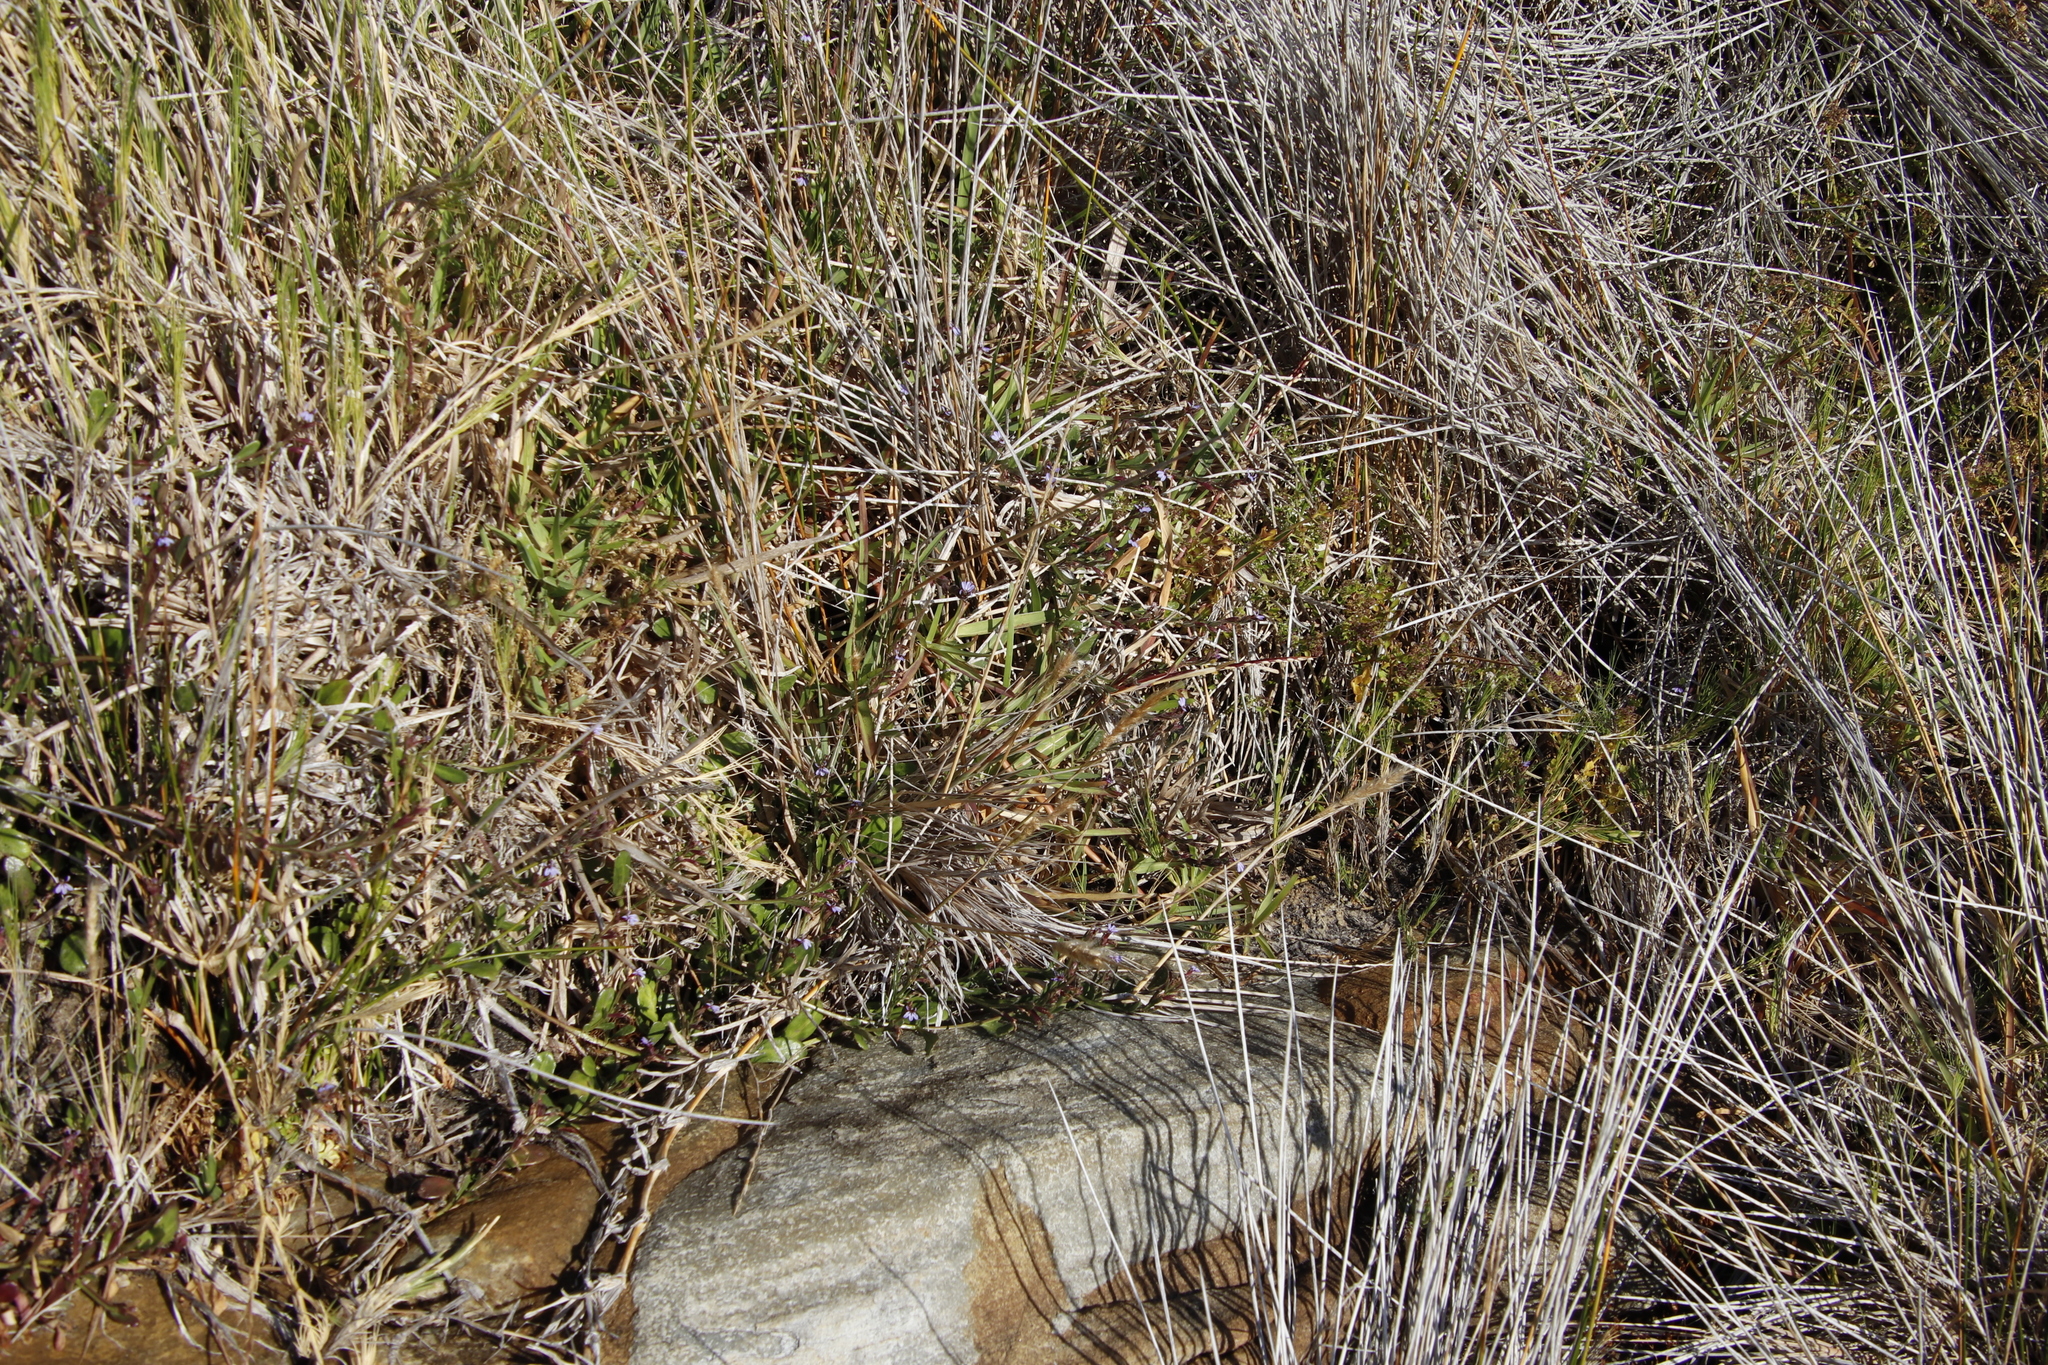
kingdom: Plantae
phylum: Tracheophyta
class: Magnoliopsida
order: Asterales
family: Campanulaceae
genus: Lobelia
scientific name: Lobelia anceps
